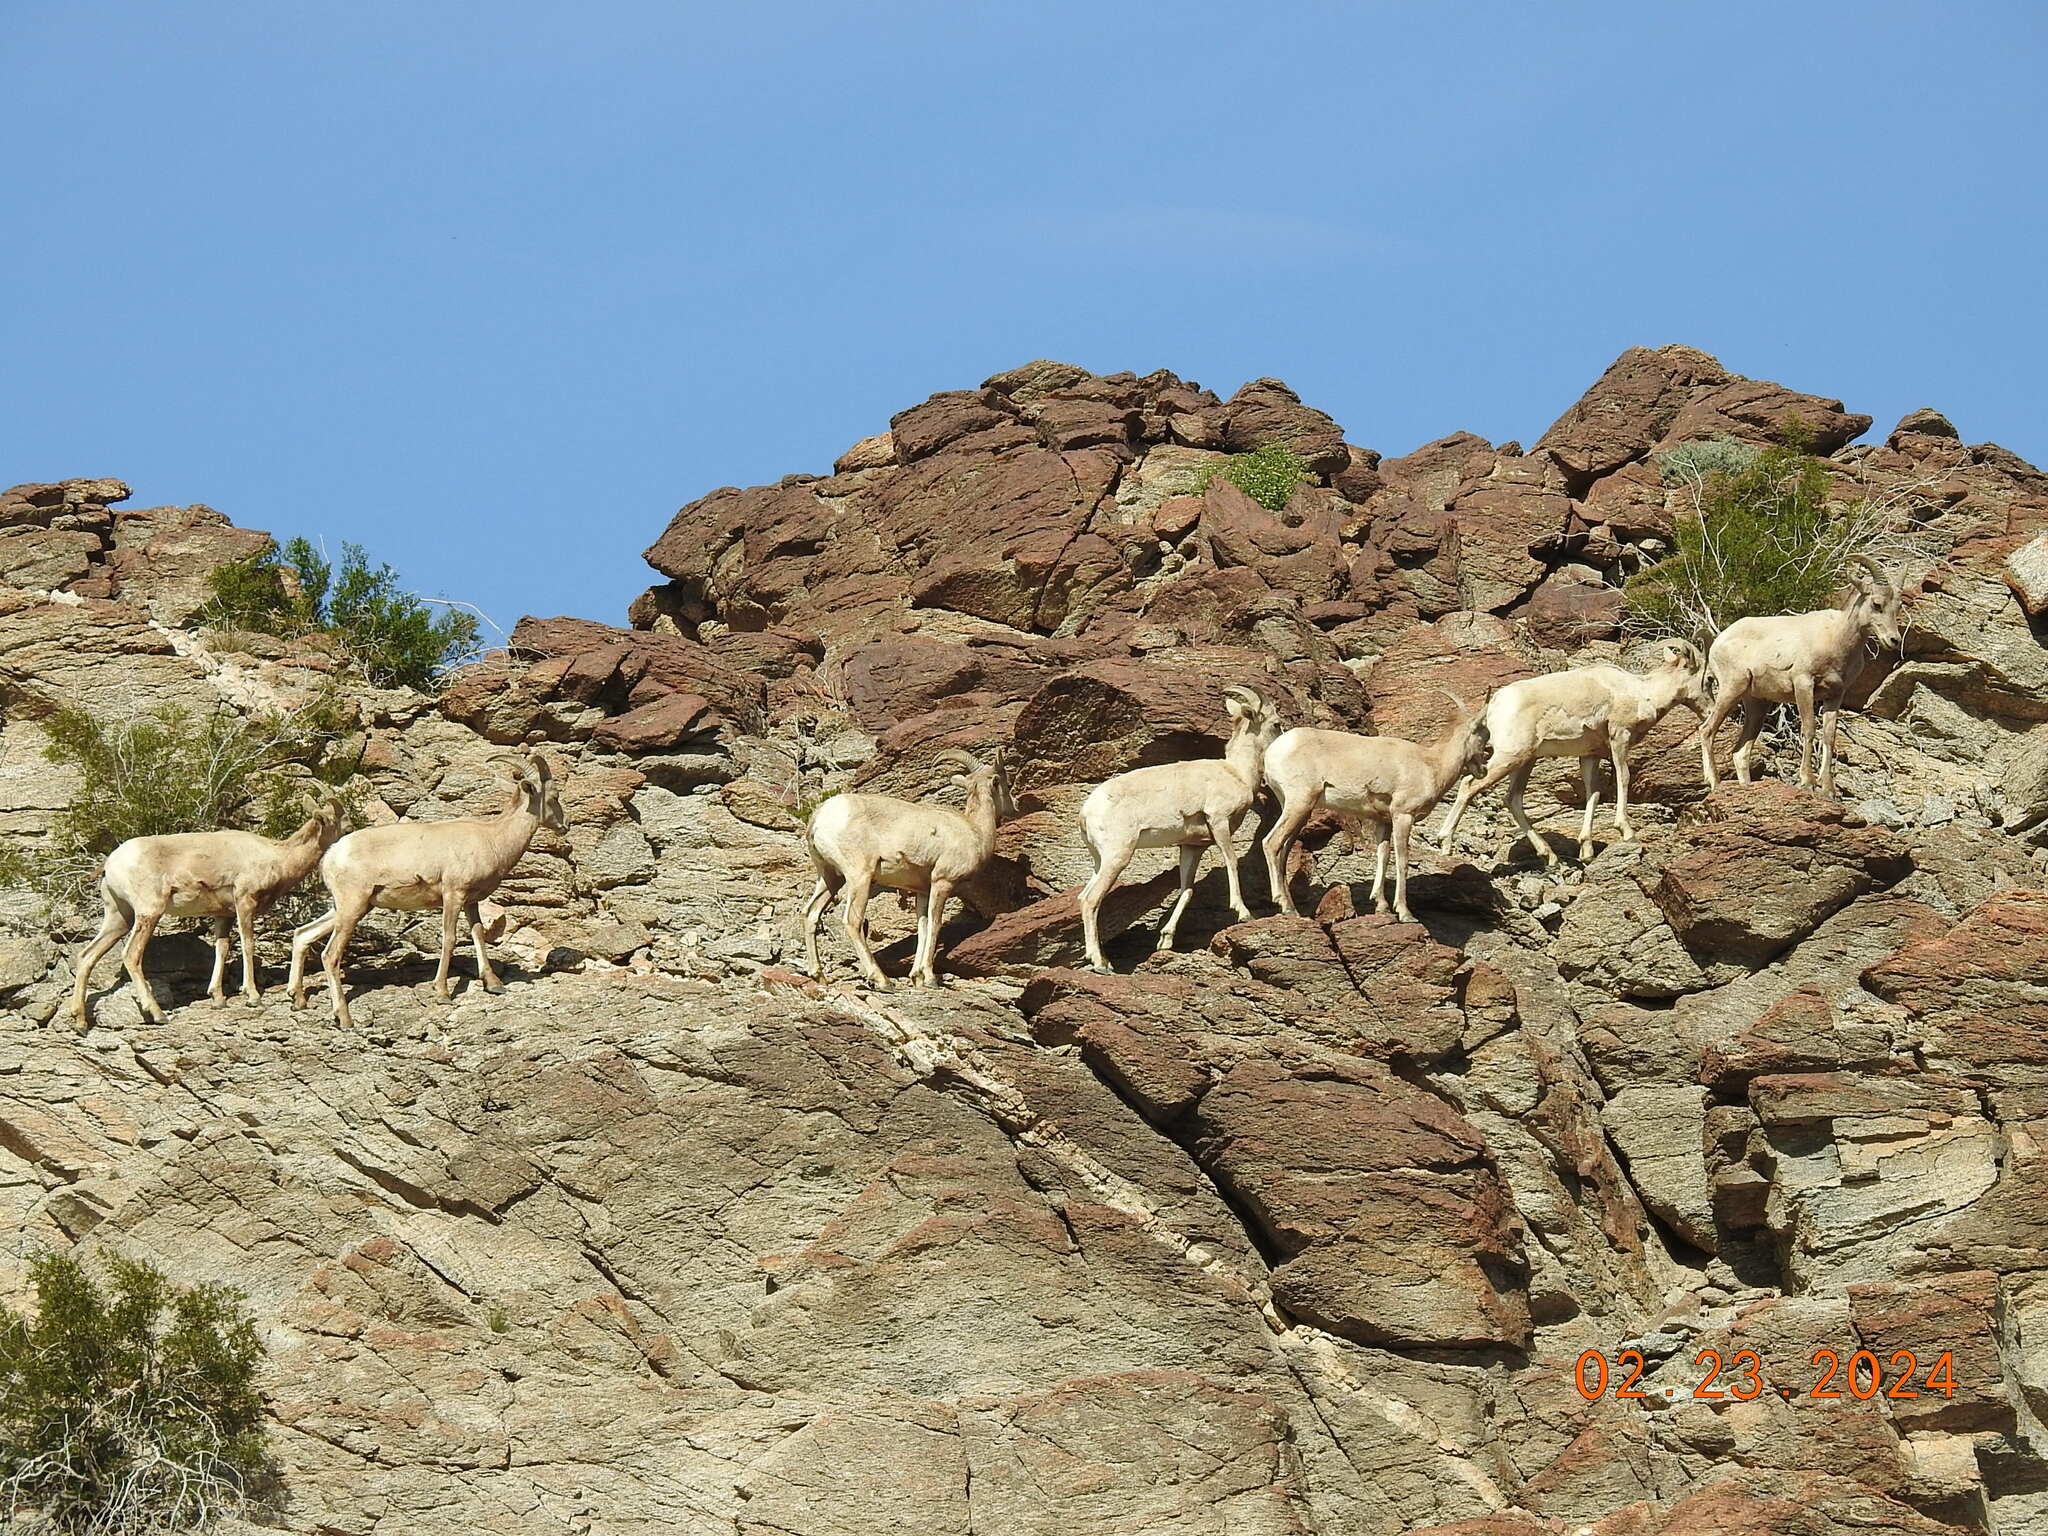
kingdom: Animalia
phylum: Chordata
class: Mammalia
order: Artiodactyla
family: Bovidae
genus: Ovis
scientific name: Ovis canadensis
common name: Bighorn sheep
